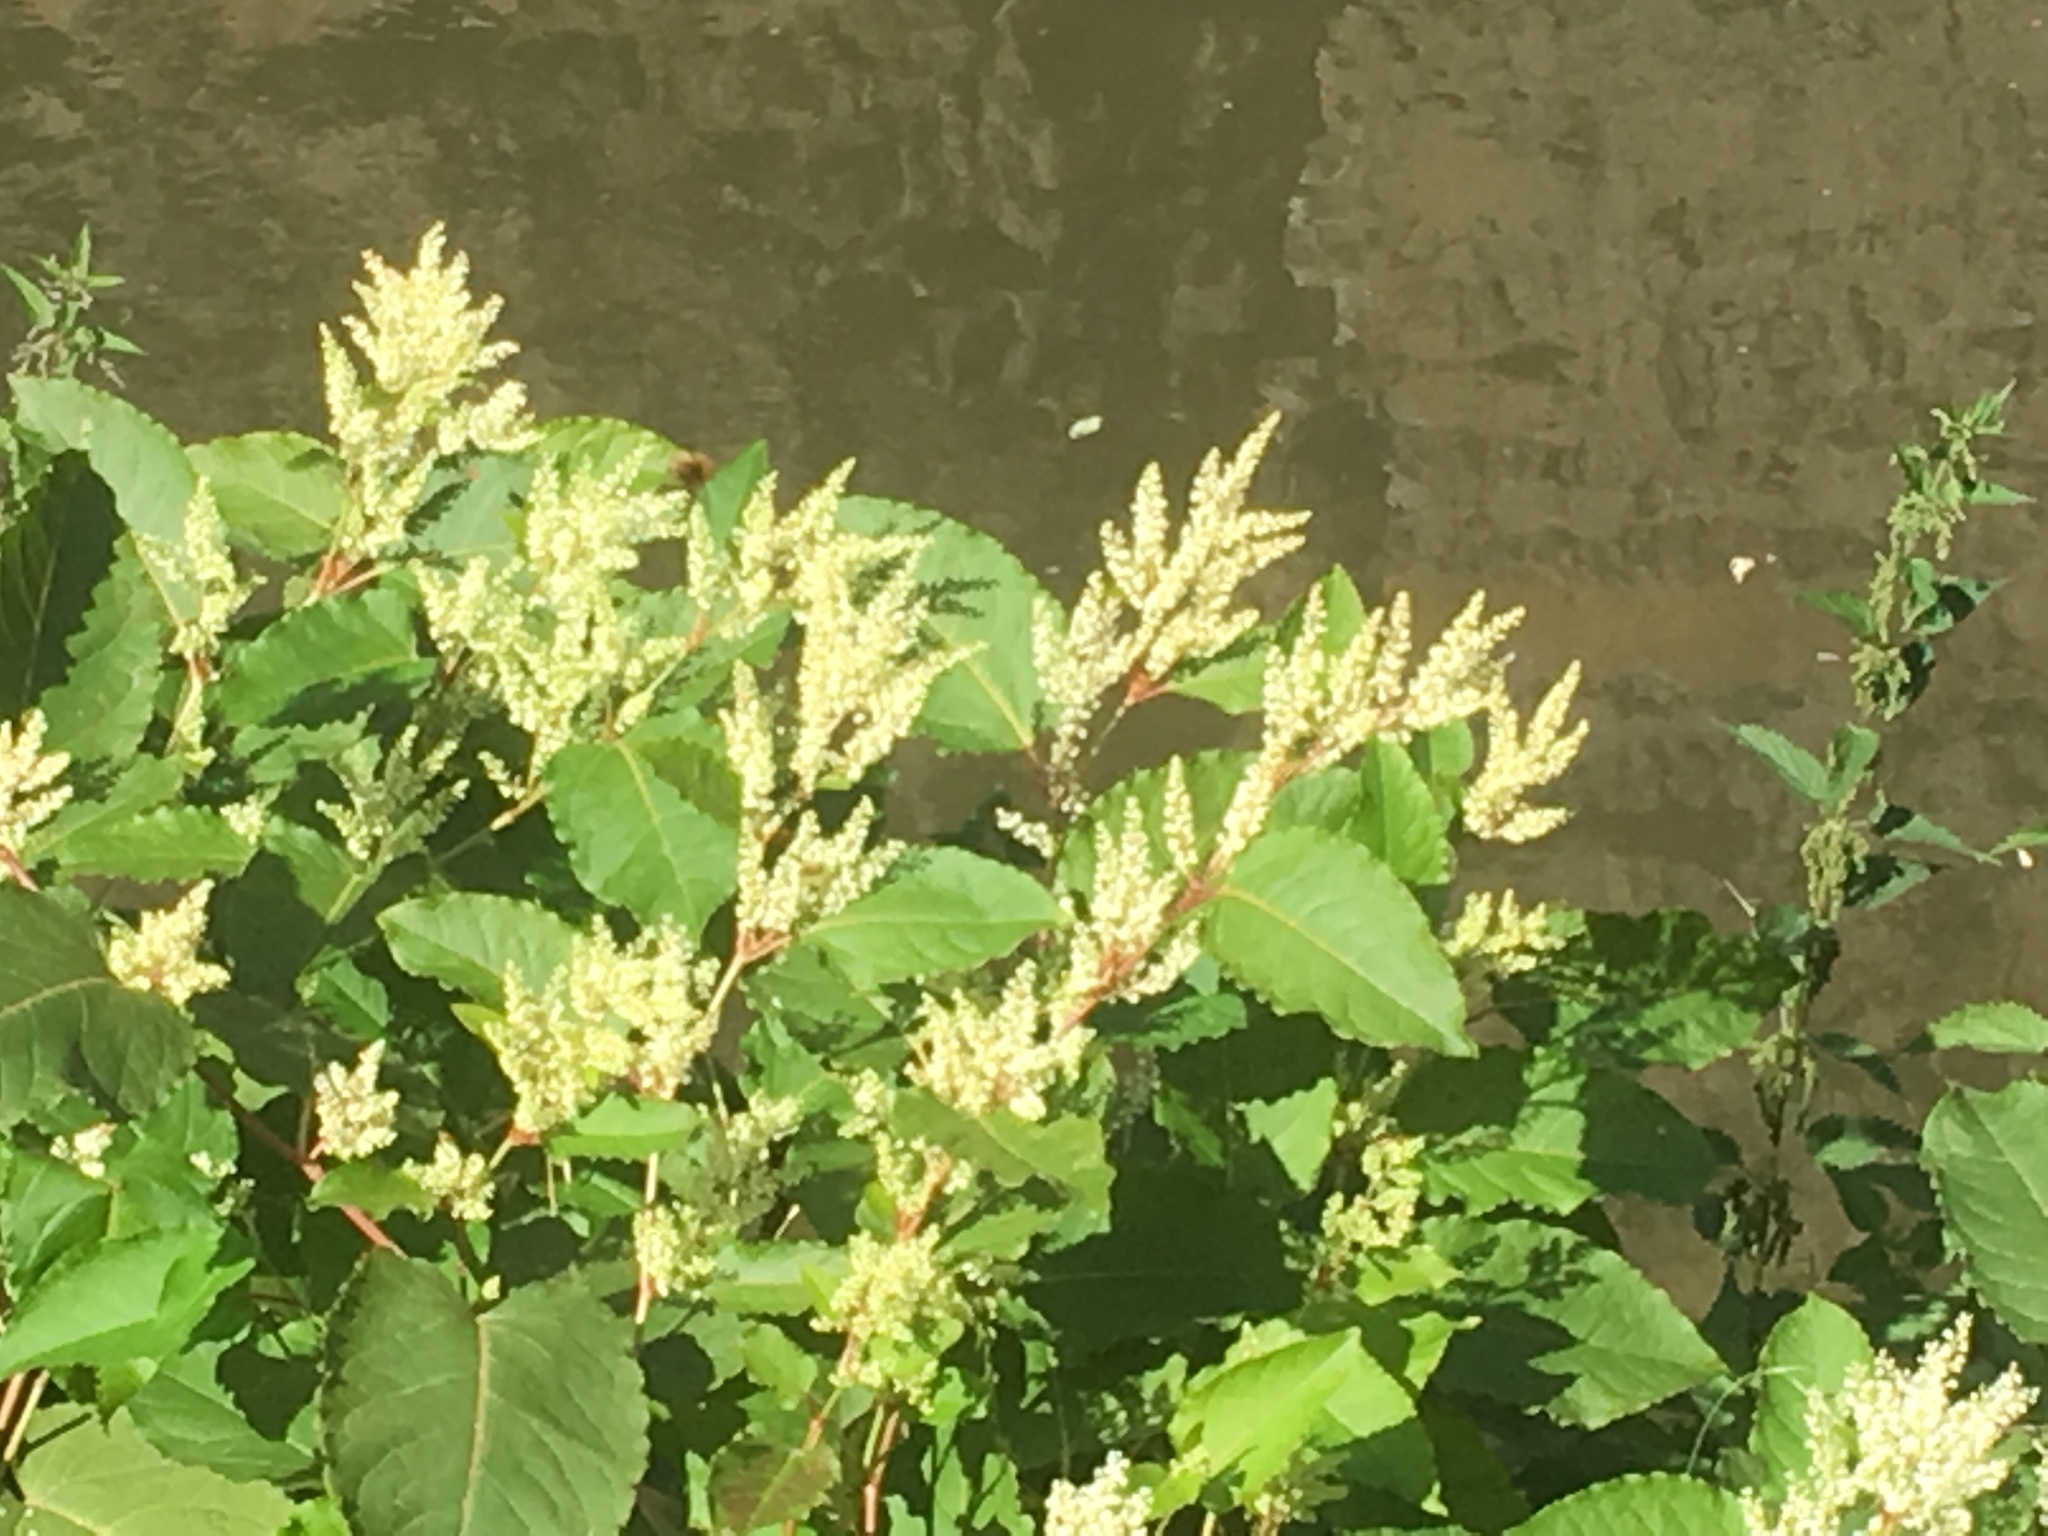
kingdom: Plantae
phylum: Tracheophyta
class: Magnoliopsida
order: Caryophyllales
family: Polygonaceae
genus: Reynoutria
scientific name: Reynoutria sachalinensis
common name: Giant knotweed
